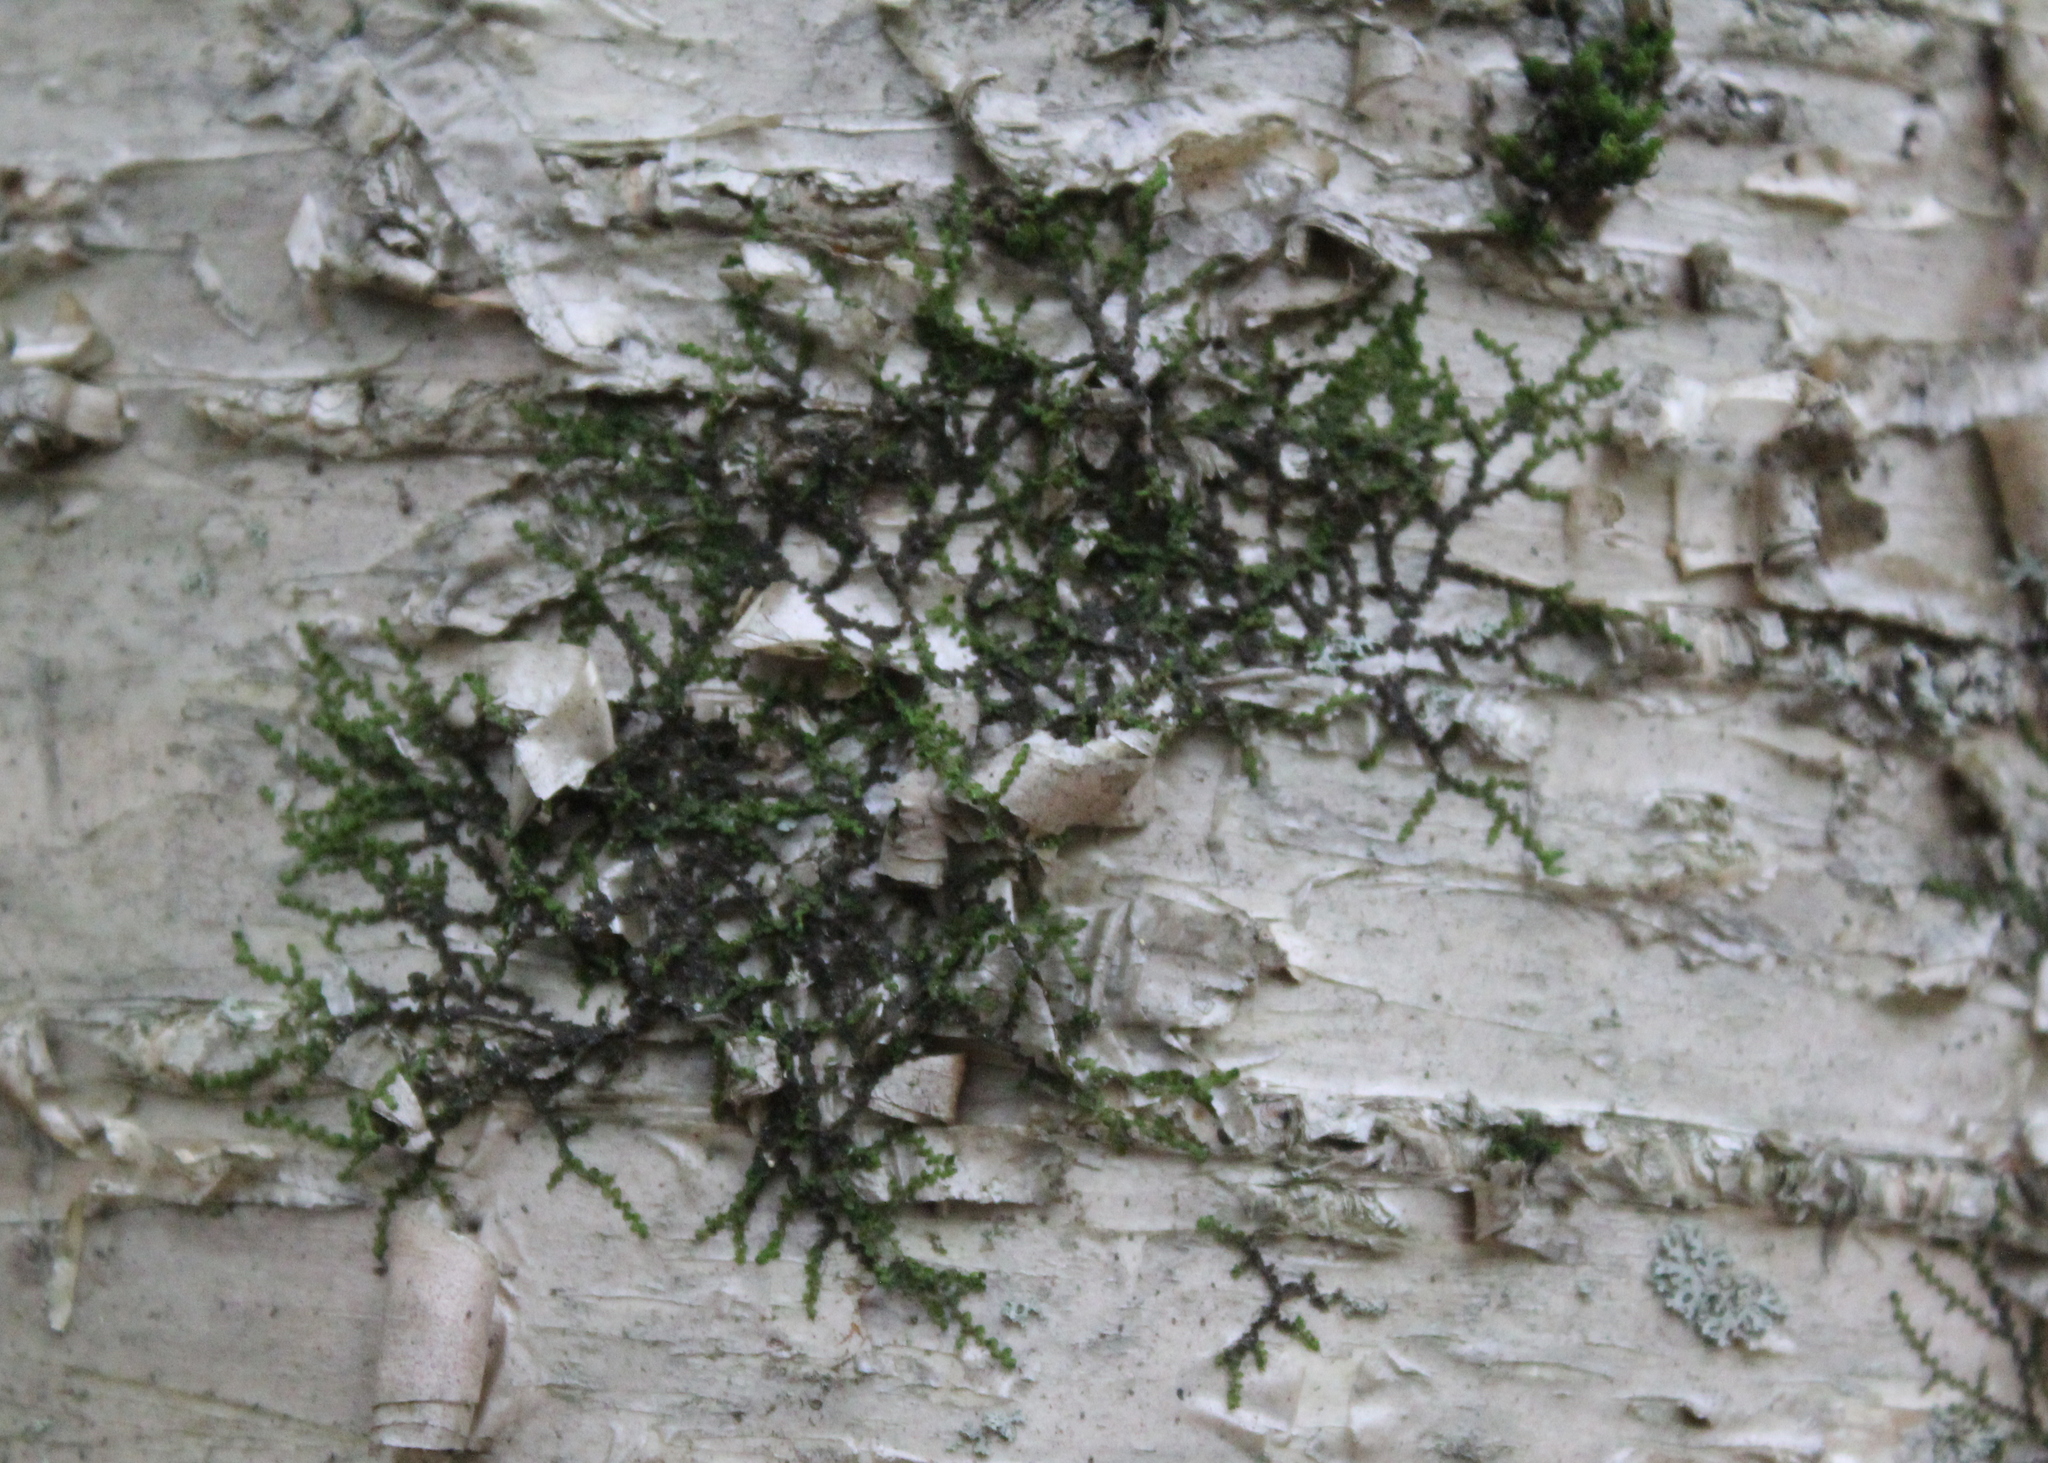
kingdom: Plantae
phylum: Marchantiophyta
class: Jungermanniopsida
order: Porellales
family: Frullaniaceae
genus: Frullania
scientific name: Frullania eboracensis
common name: New york scalewort
